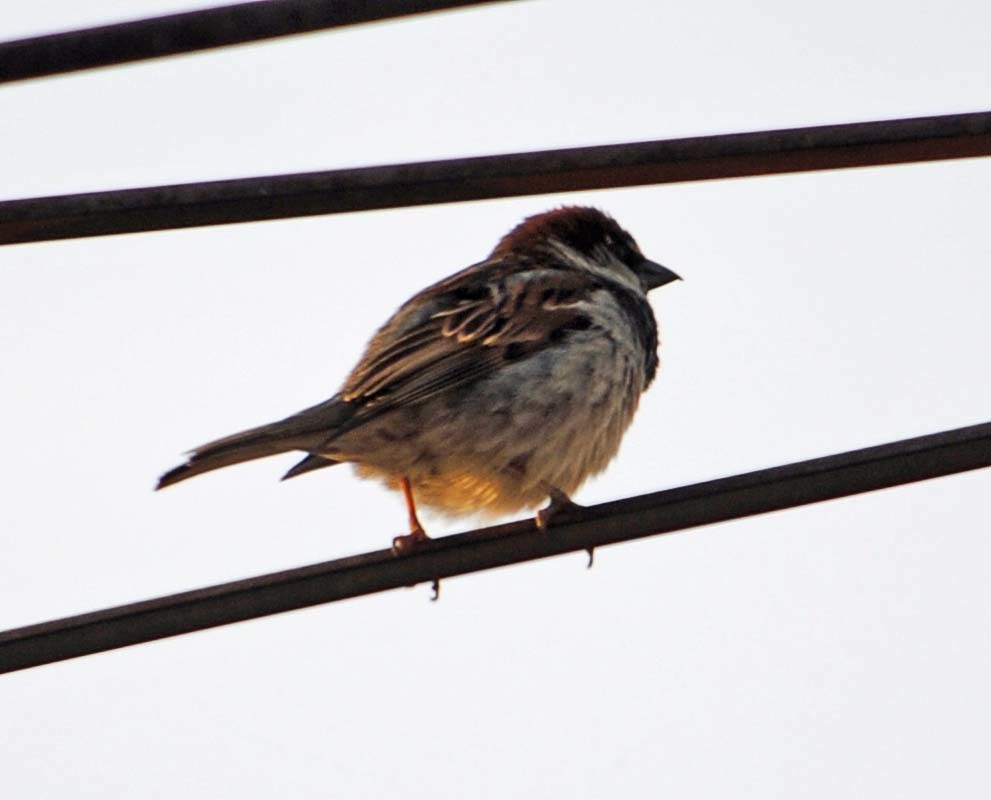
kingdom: Animalia
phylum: Chordata
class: Aves
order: Passeriformes
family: Passeridae
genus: Passer
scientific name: Passer domesticus
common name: House sparrow
